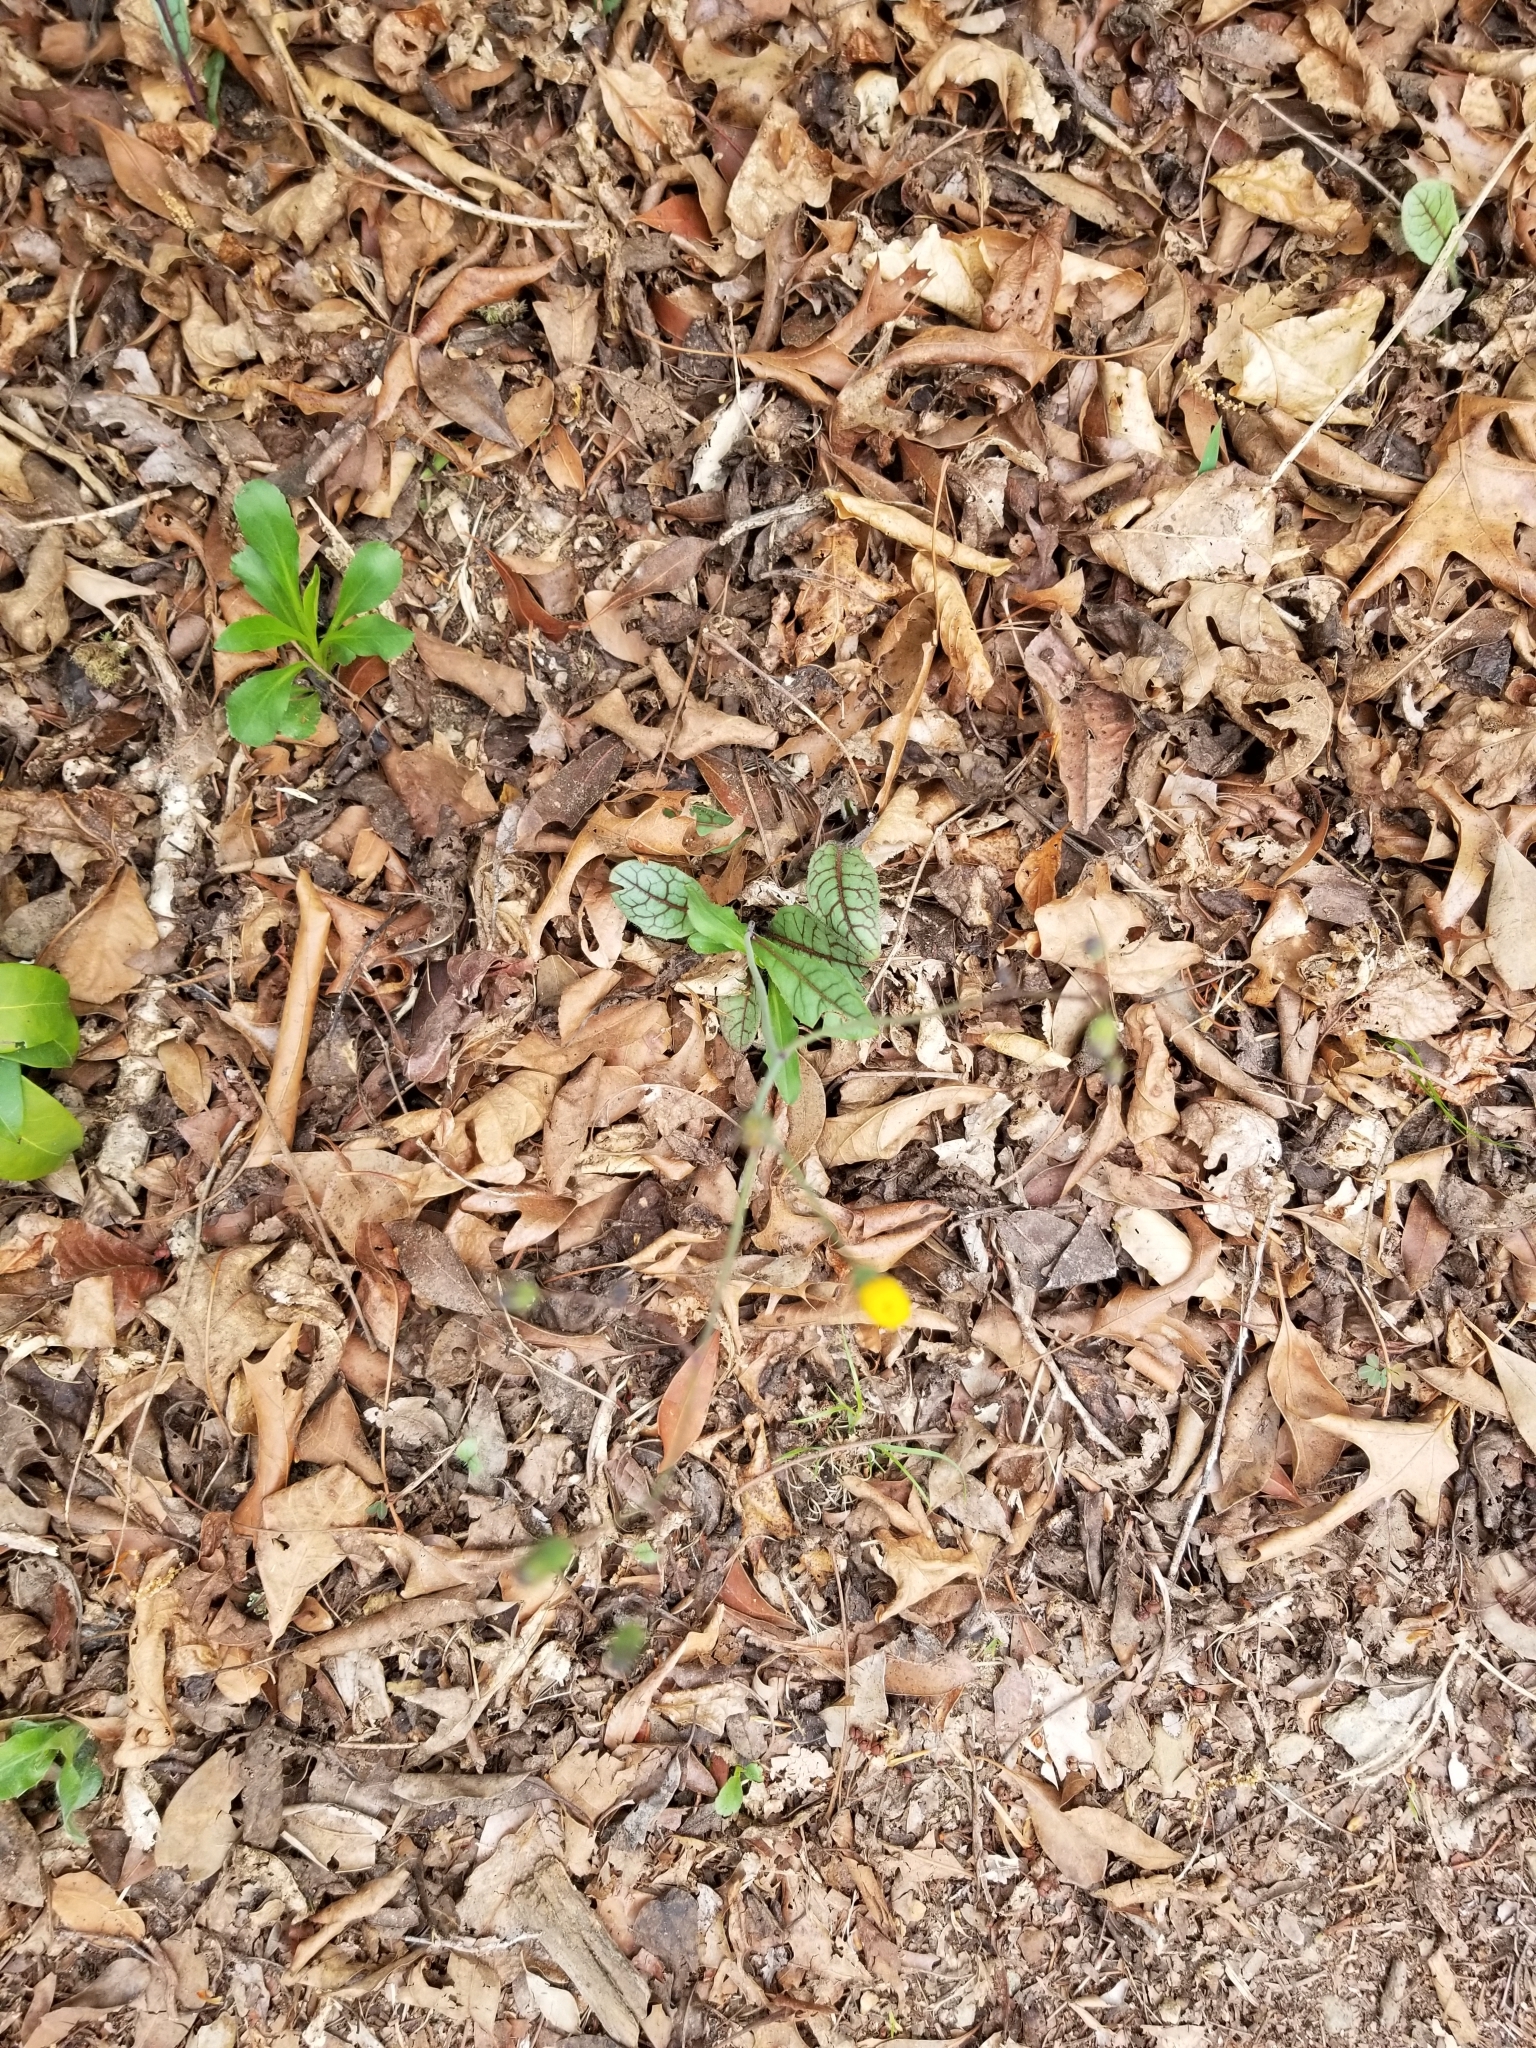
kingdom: Plantae
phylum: Tracheophyta
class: Magnoliopsida
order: Asterales
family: Asteraceae
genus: Hieracium
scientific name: Hieracium venosum
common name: Rattlesnake hawkweed
